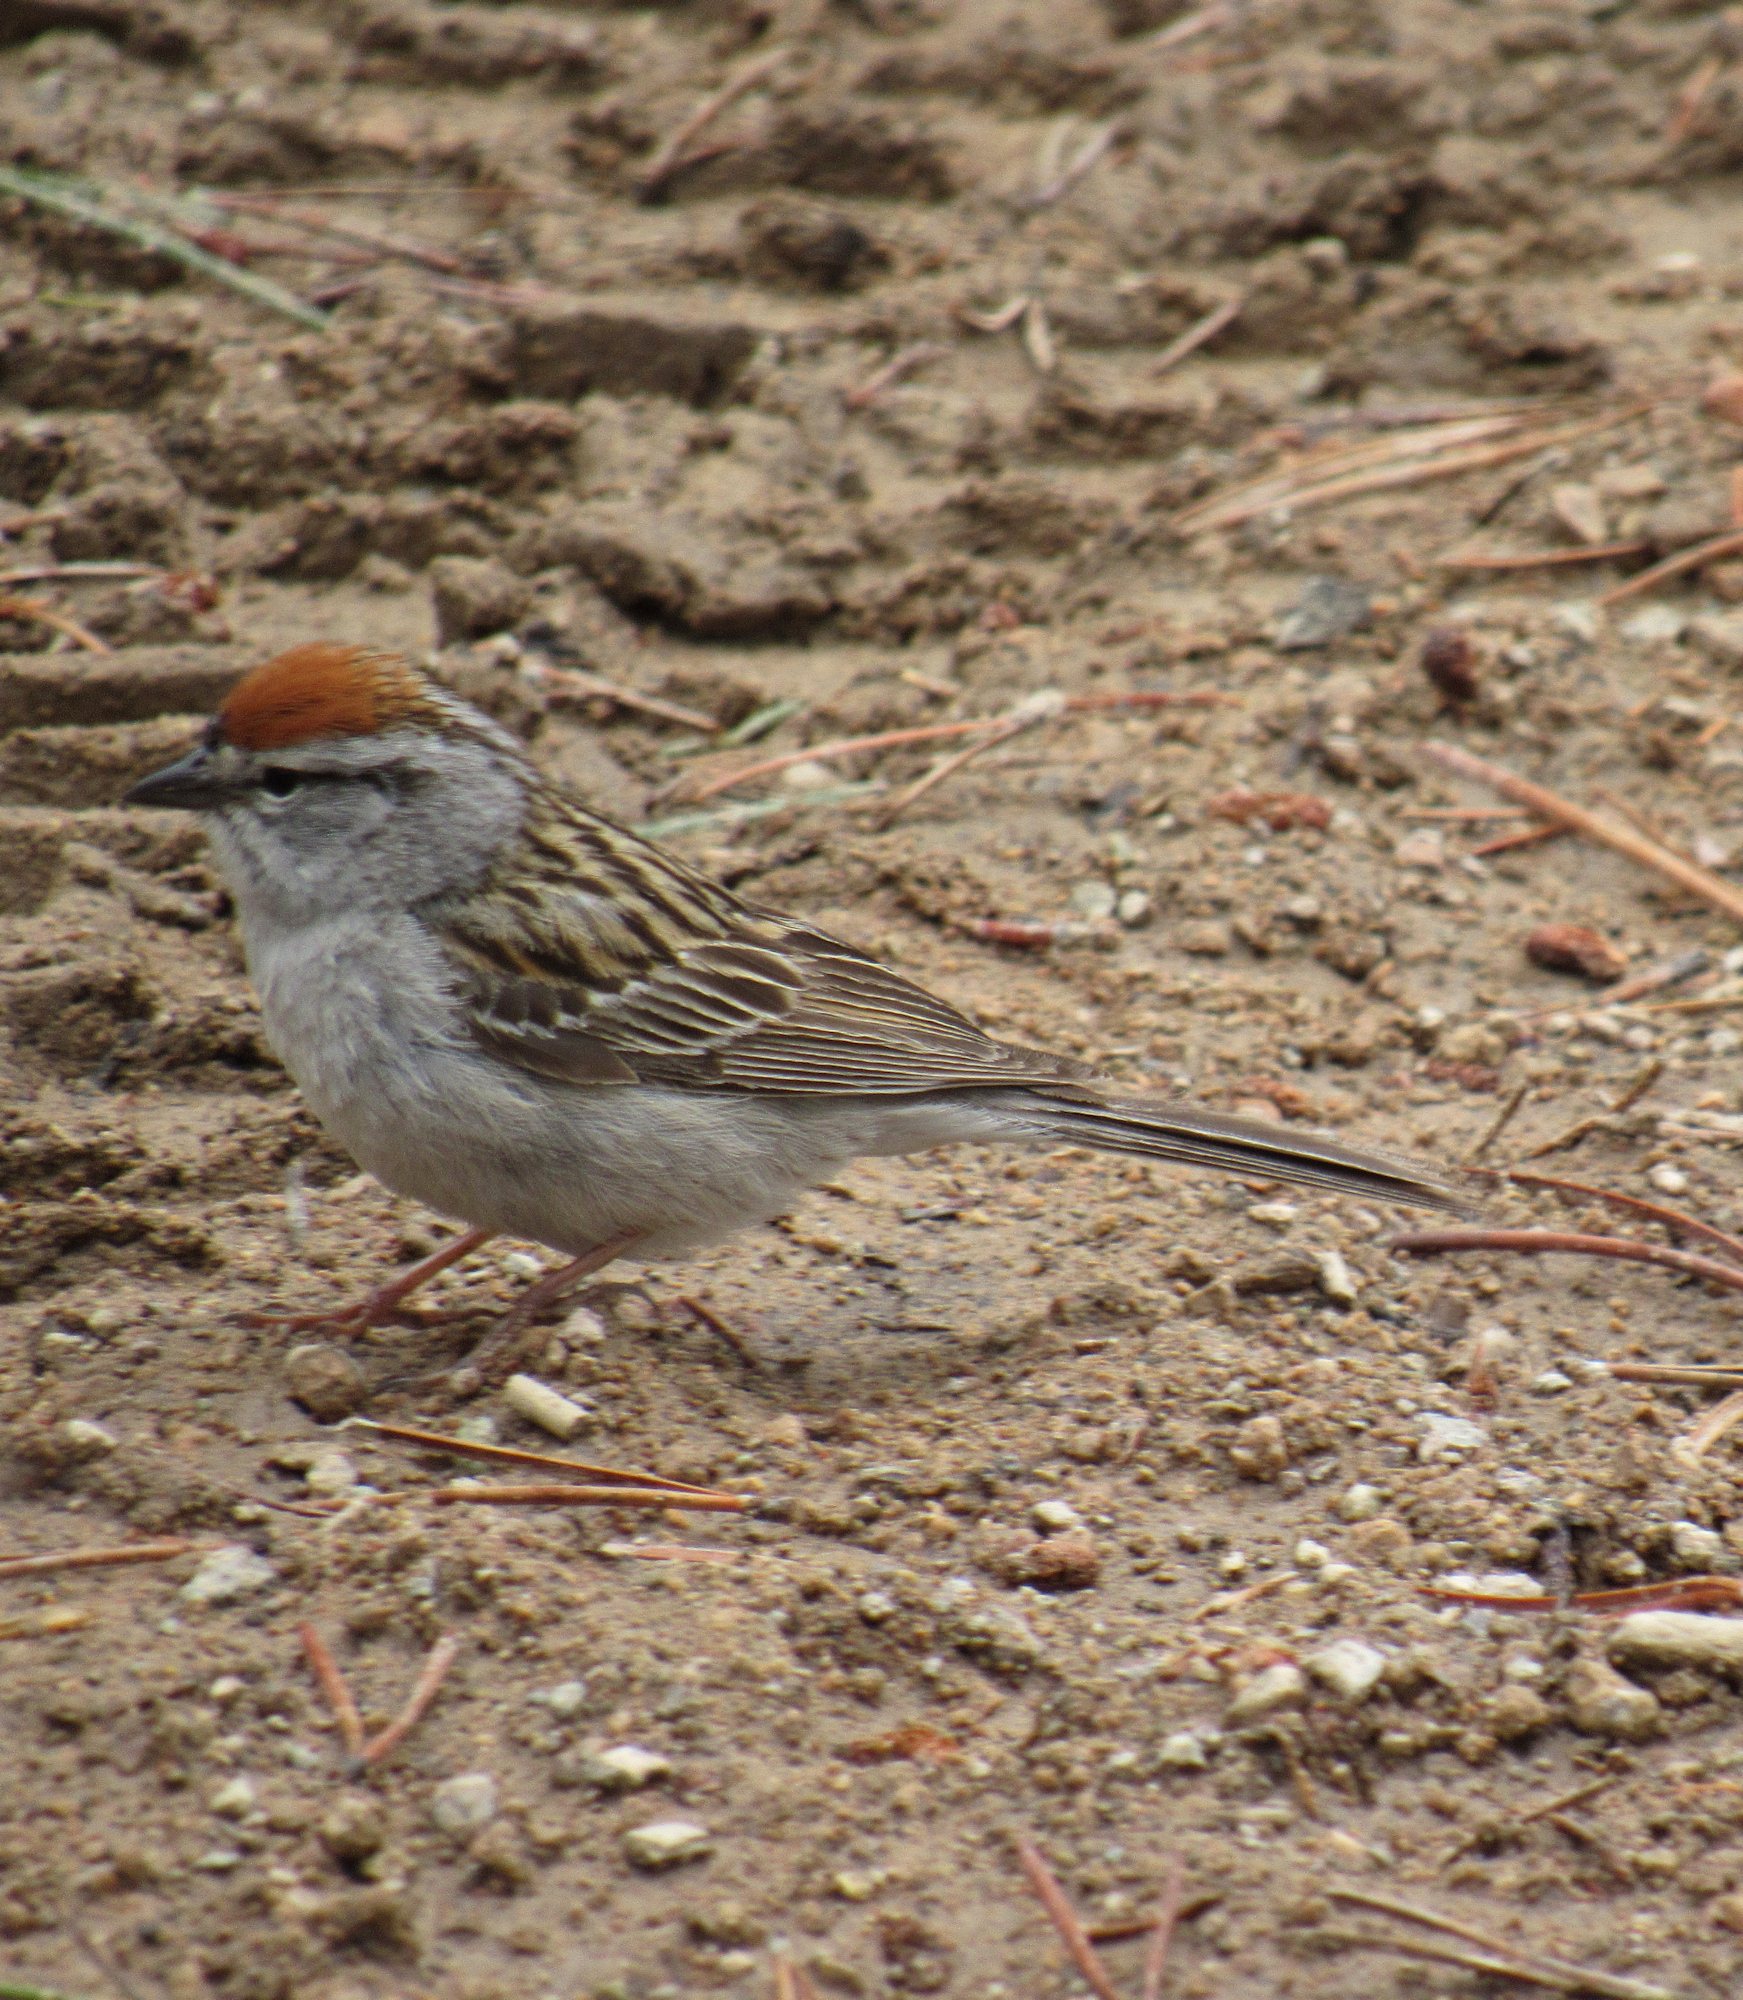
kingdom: Animalia
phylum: Chordata
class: Aves
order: Passeriformes
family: Passerellidae
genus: Spizella
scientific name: Spizella passerina
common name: Chipping sparrow
